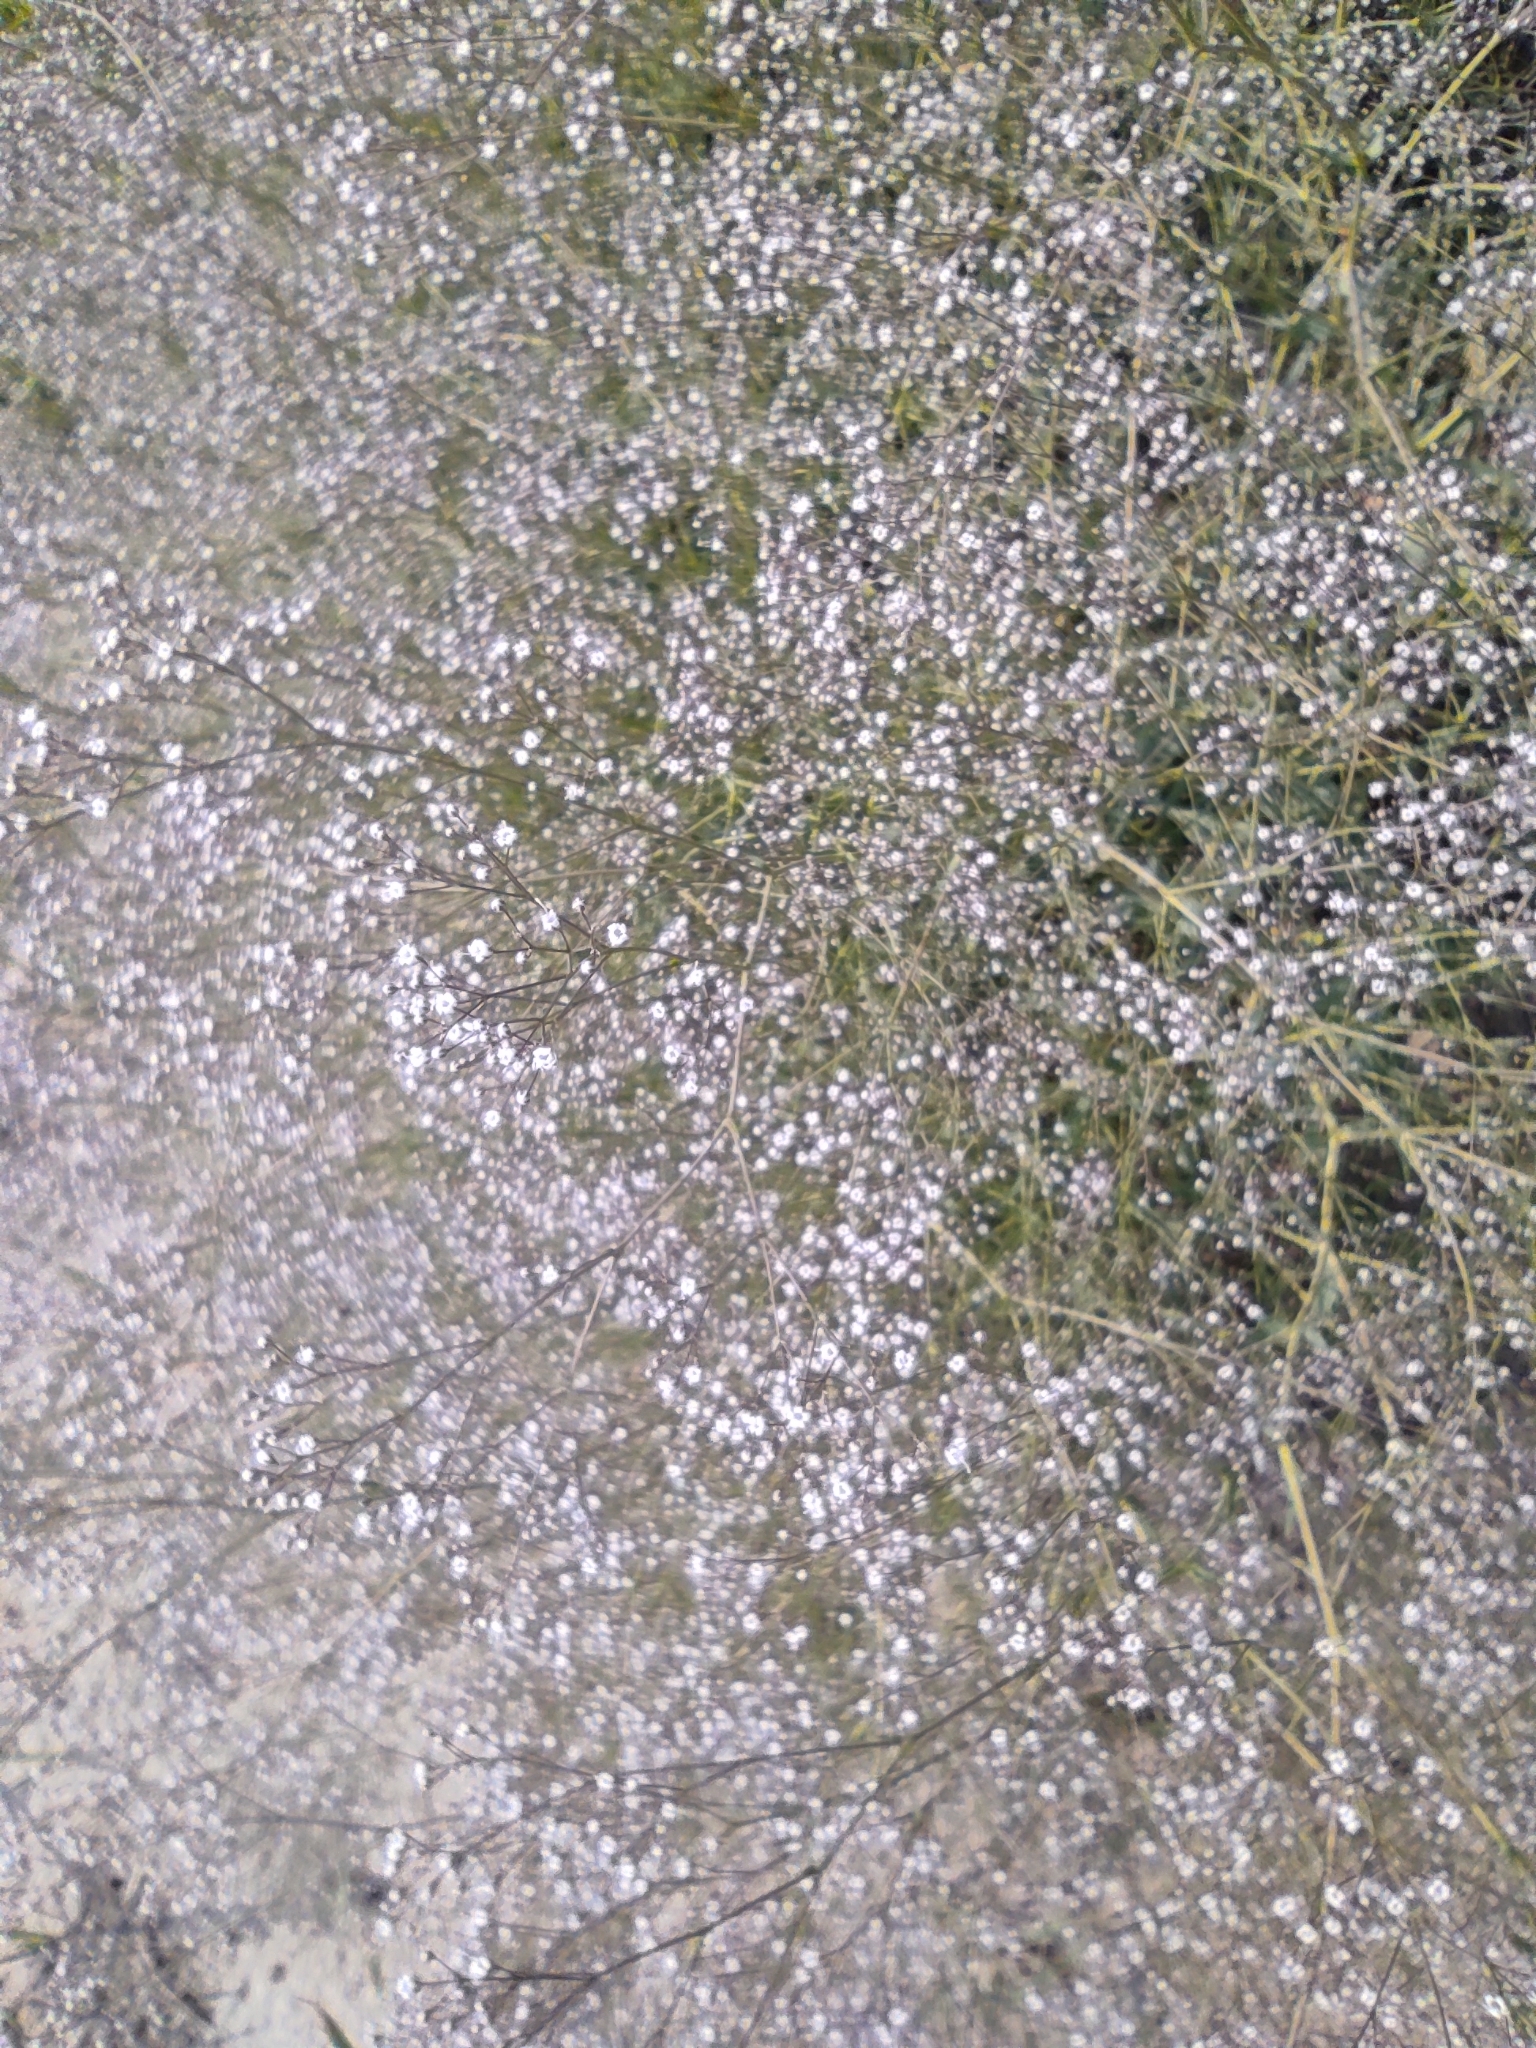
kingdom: Plantae
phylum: Tracheophyta
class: Magnoliopsida
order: Caryophyllales
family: Caryophyllaceae
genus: Gypsophila
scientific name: Gypsophila paniculata
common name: Baby's-breath
